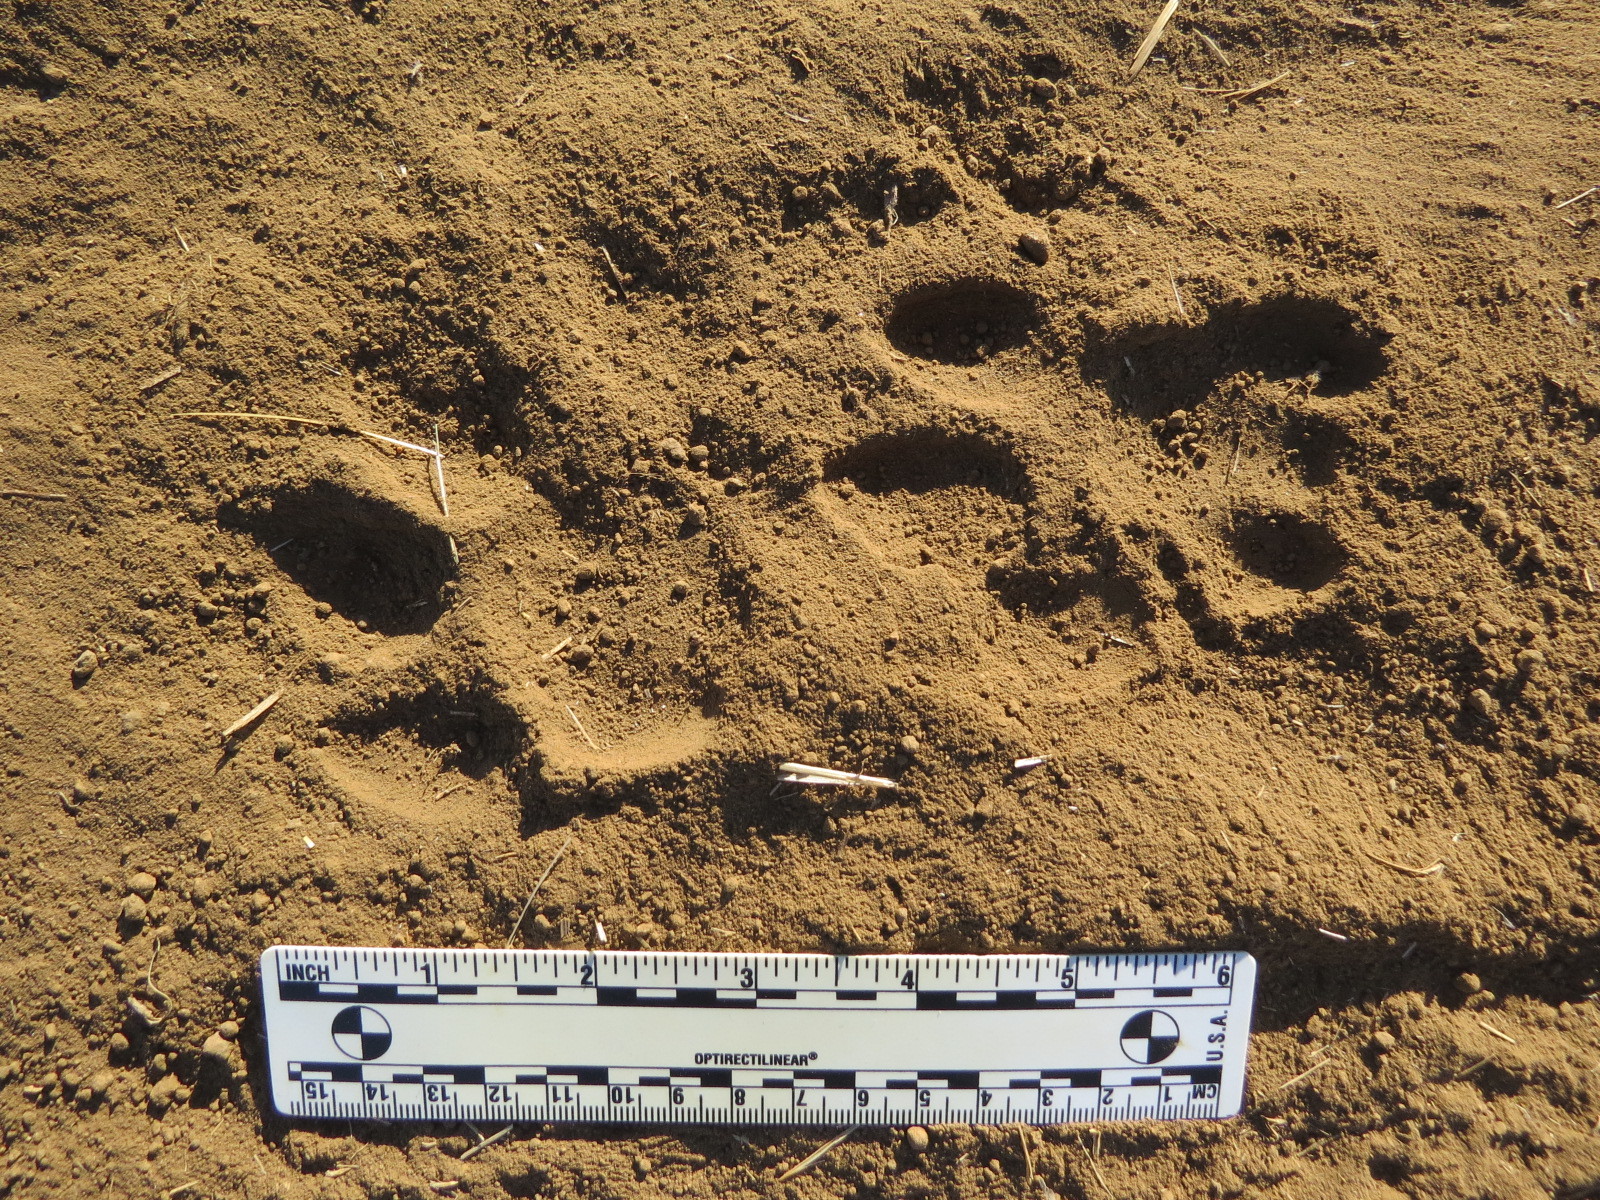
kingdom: Animalia
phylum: Chordata
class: Mammalia
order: Carnivora
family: Felidae
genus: Puma
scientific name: Puma concolor
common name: Puma
